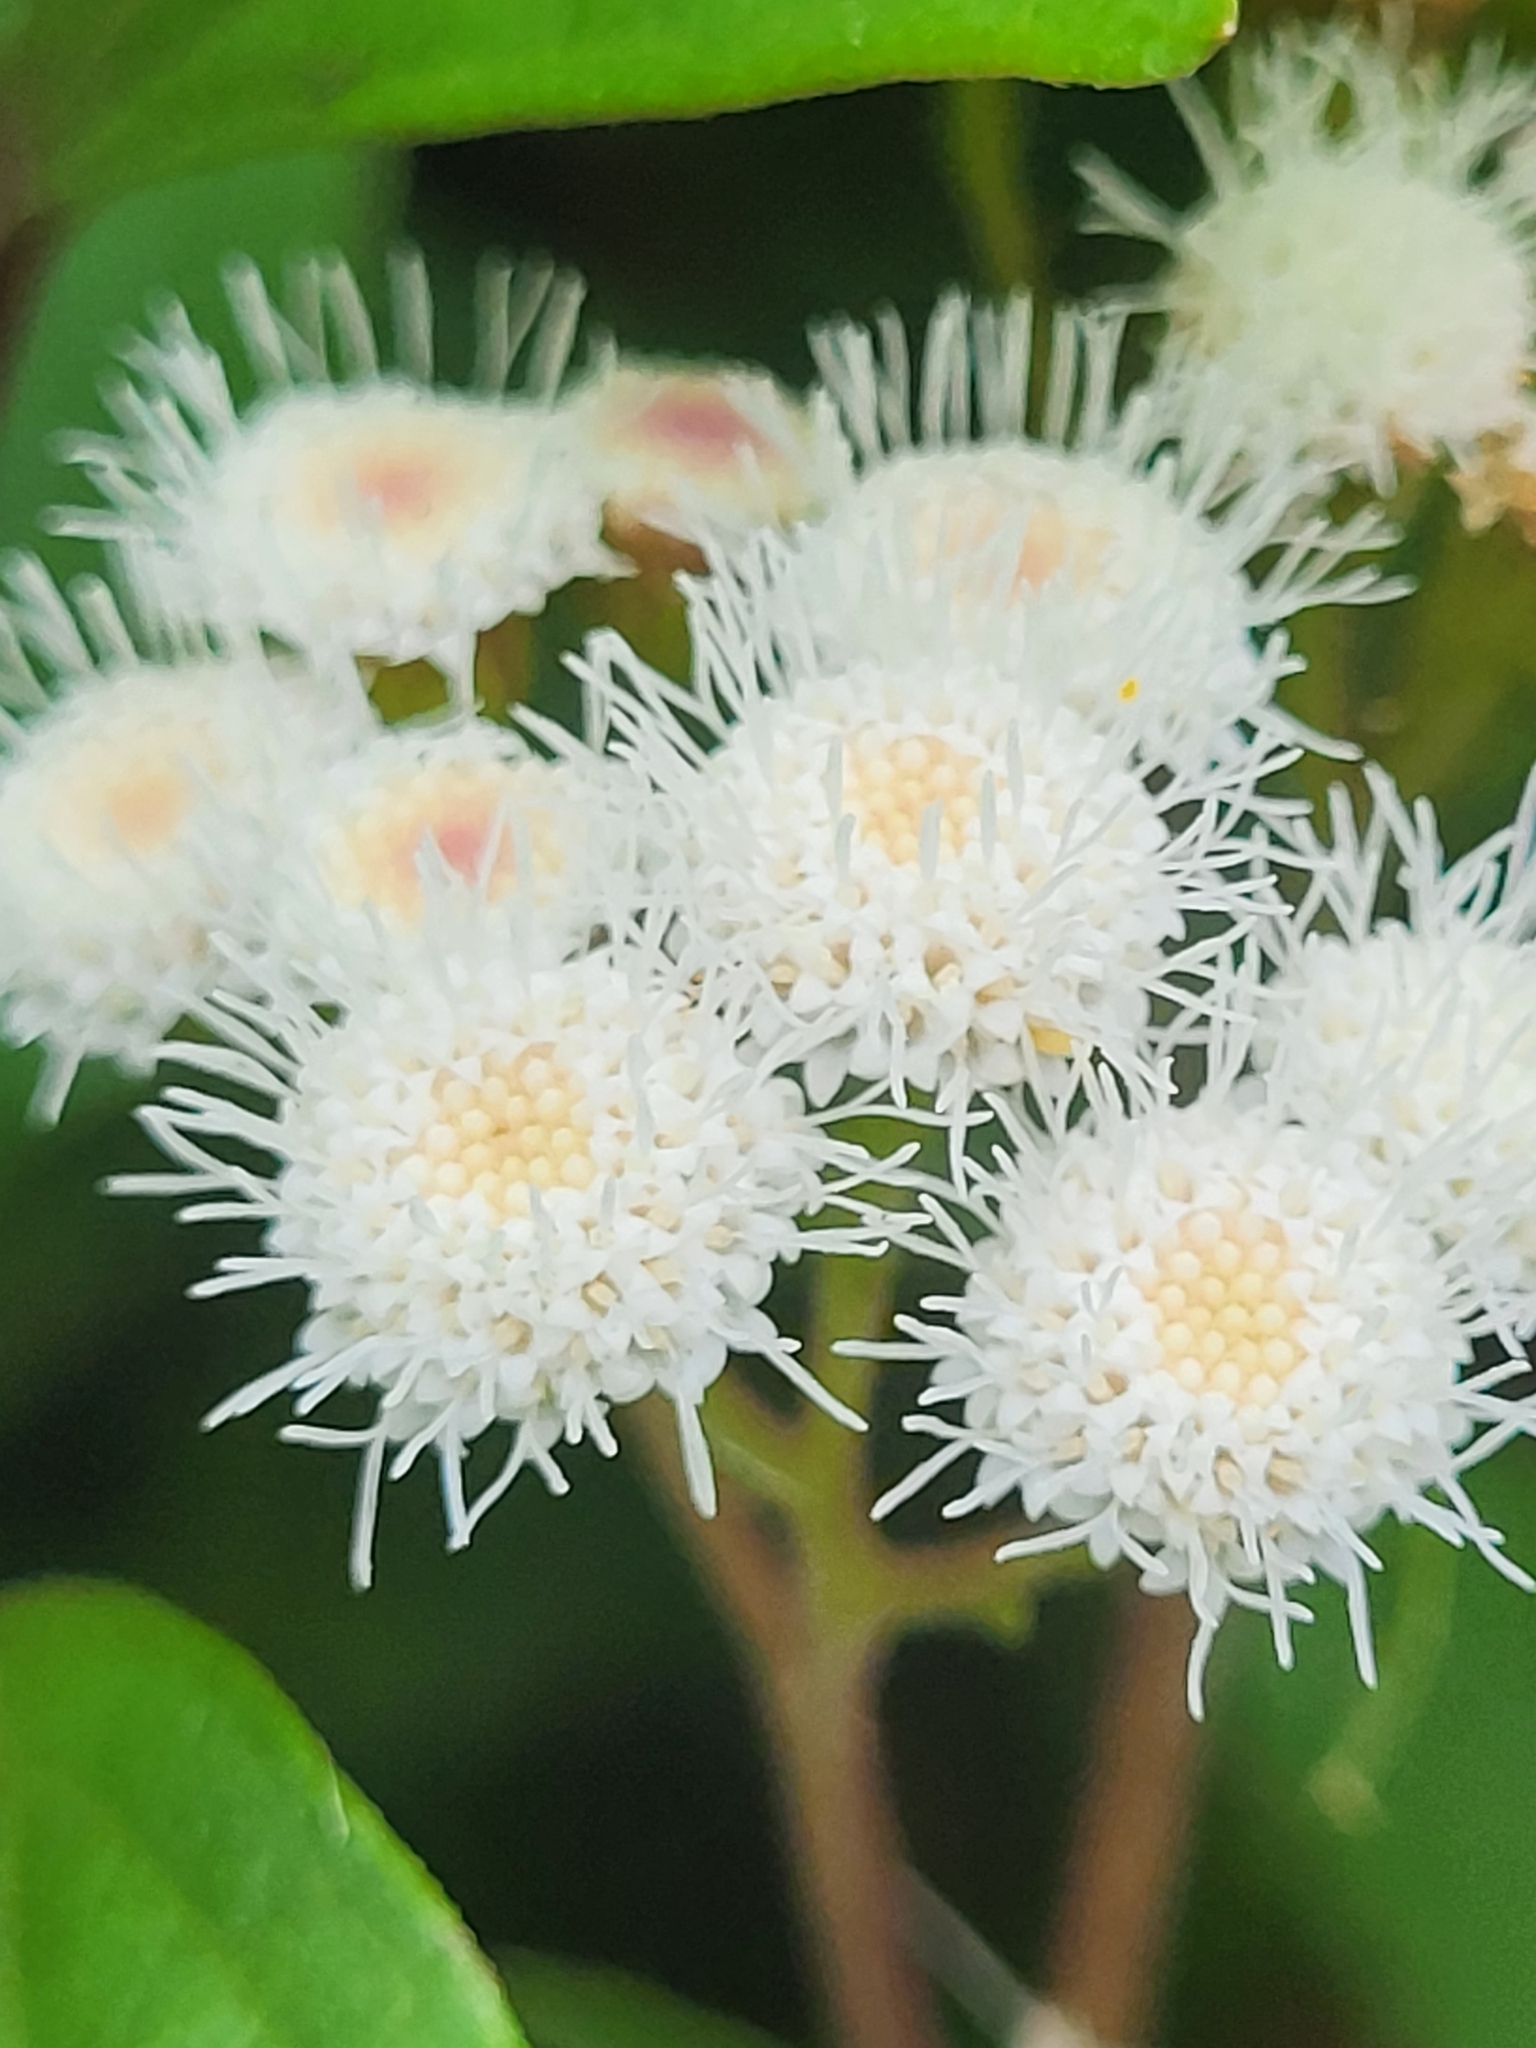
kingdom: Plantae
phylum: Tracheophyta
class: Magnoliopsida
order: Asterales
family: Asteraceae
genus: Ageratina
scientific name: Ageratina adenophora
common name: Sticky snakeroot
